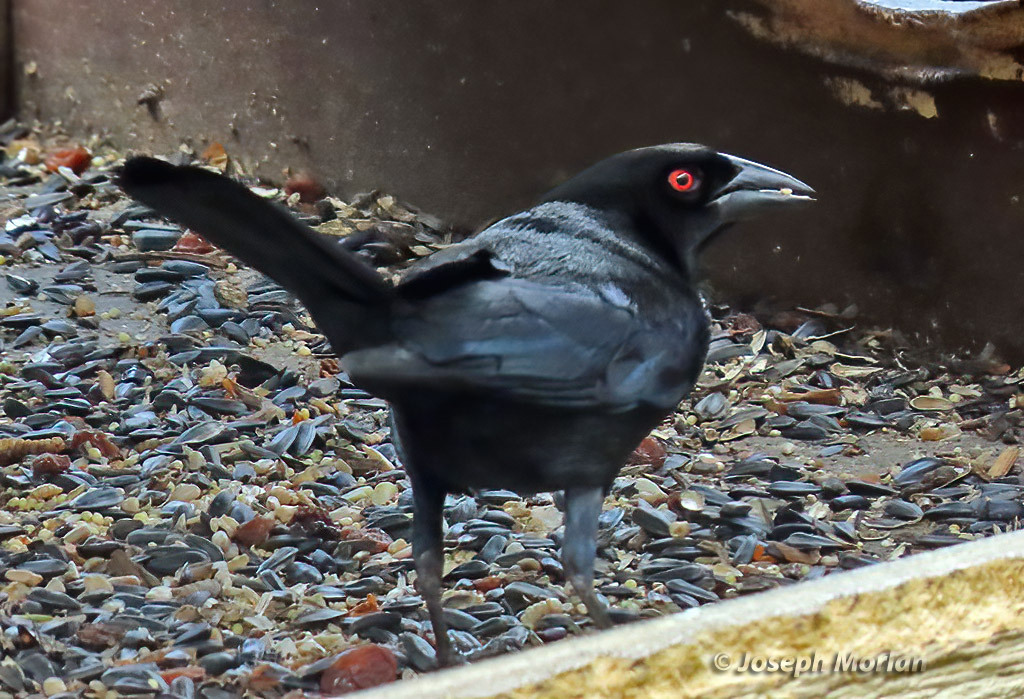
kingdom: Animalia
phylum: Chordata
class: Aves
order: Passeriformes
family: Icteridae
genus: Molothrus
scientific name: Molothrus aeneus
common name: Bronzed cowbird
